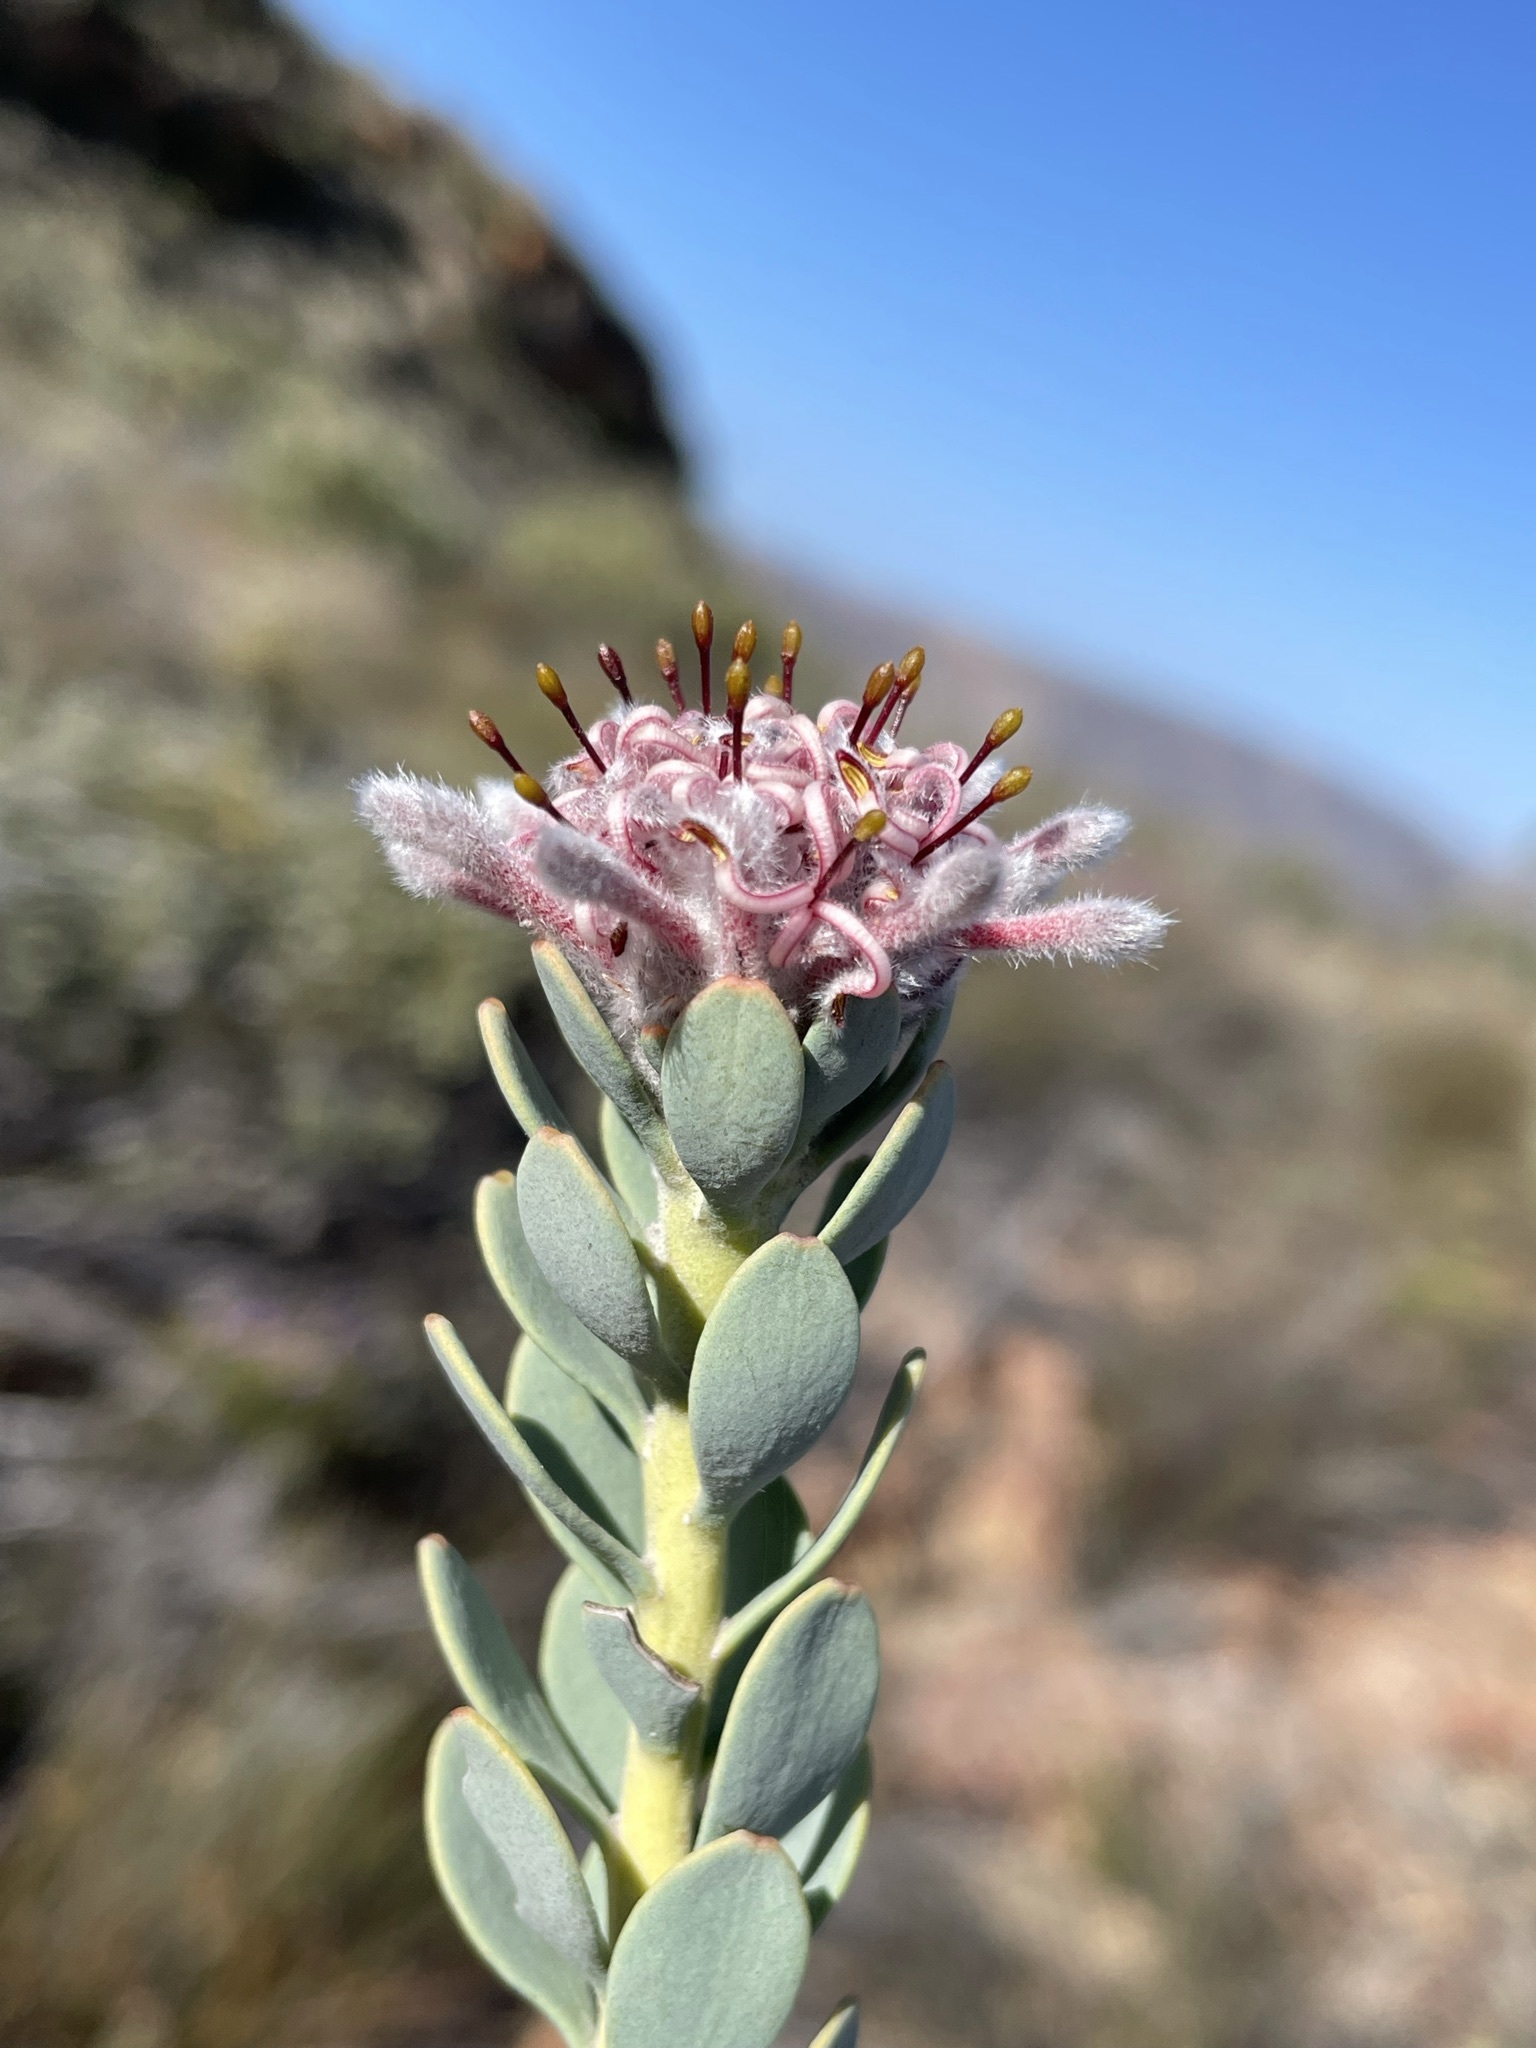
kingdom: Plantae
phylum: Tracheophyta
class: Magnoliopsida
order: Proteales
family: Proteaceae
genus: Vexatorella
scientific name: Vexatorella amoena
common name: Swartruggens vexator
